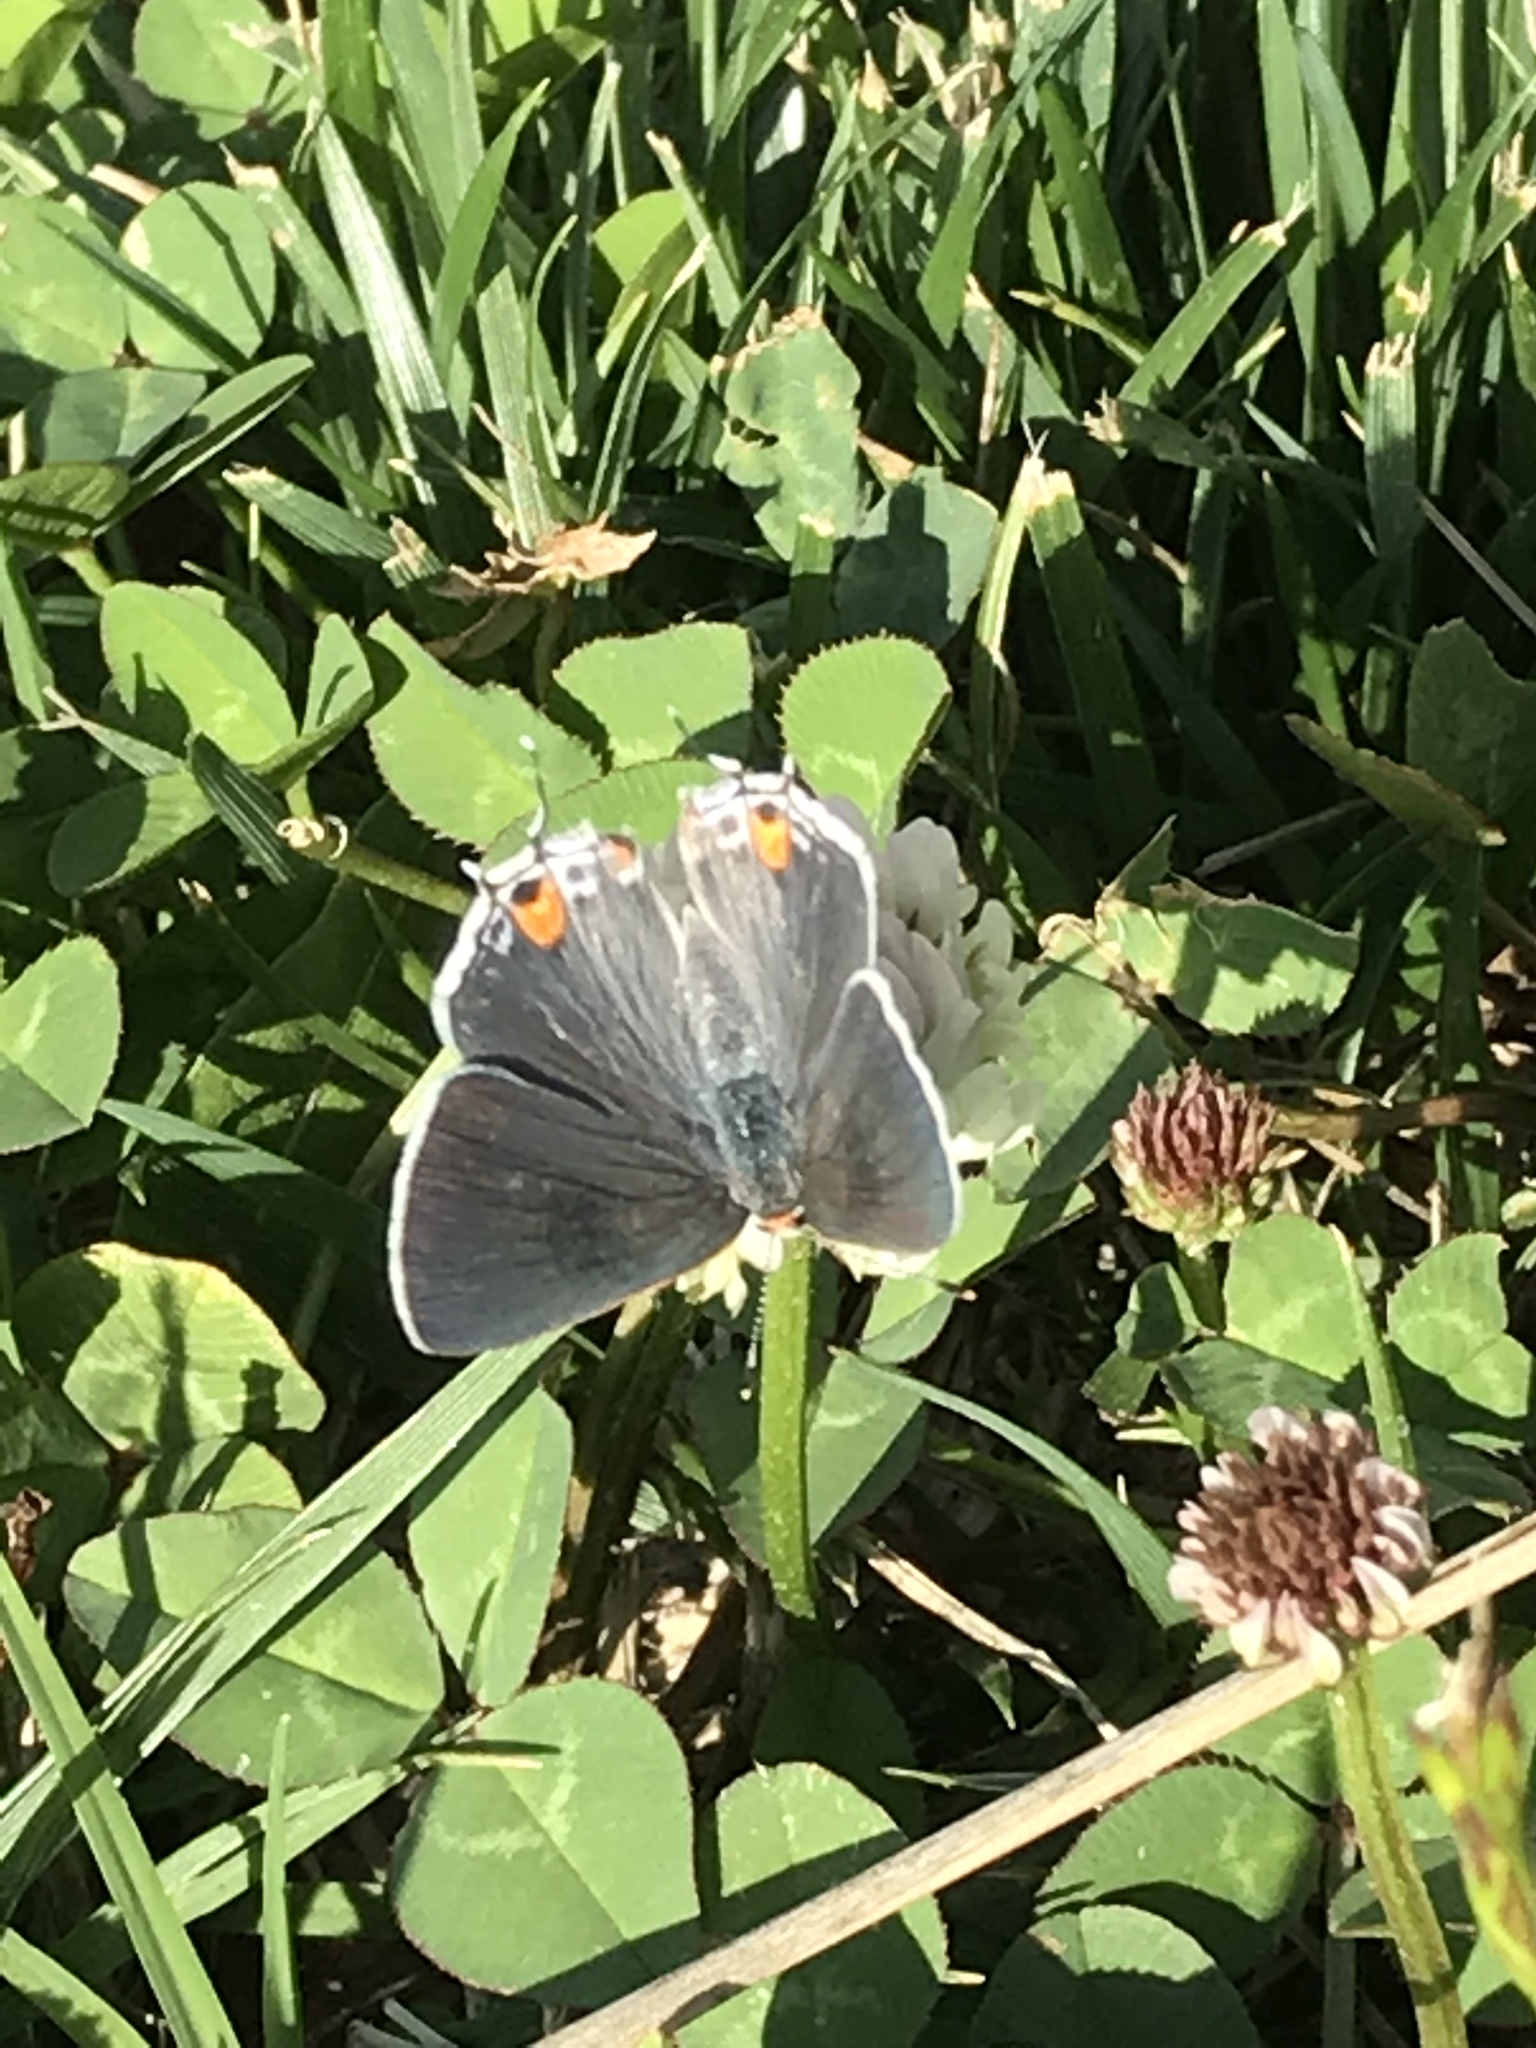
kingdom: Animalia
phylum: Arthropoda
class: Insecta
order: Lepidoptera
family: Lycaenidae
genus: Strymon
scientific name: Strymon melinus
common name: Gray hairstreak
